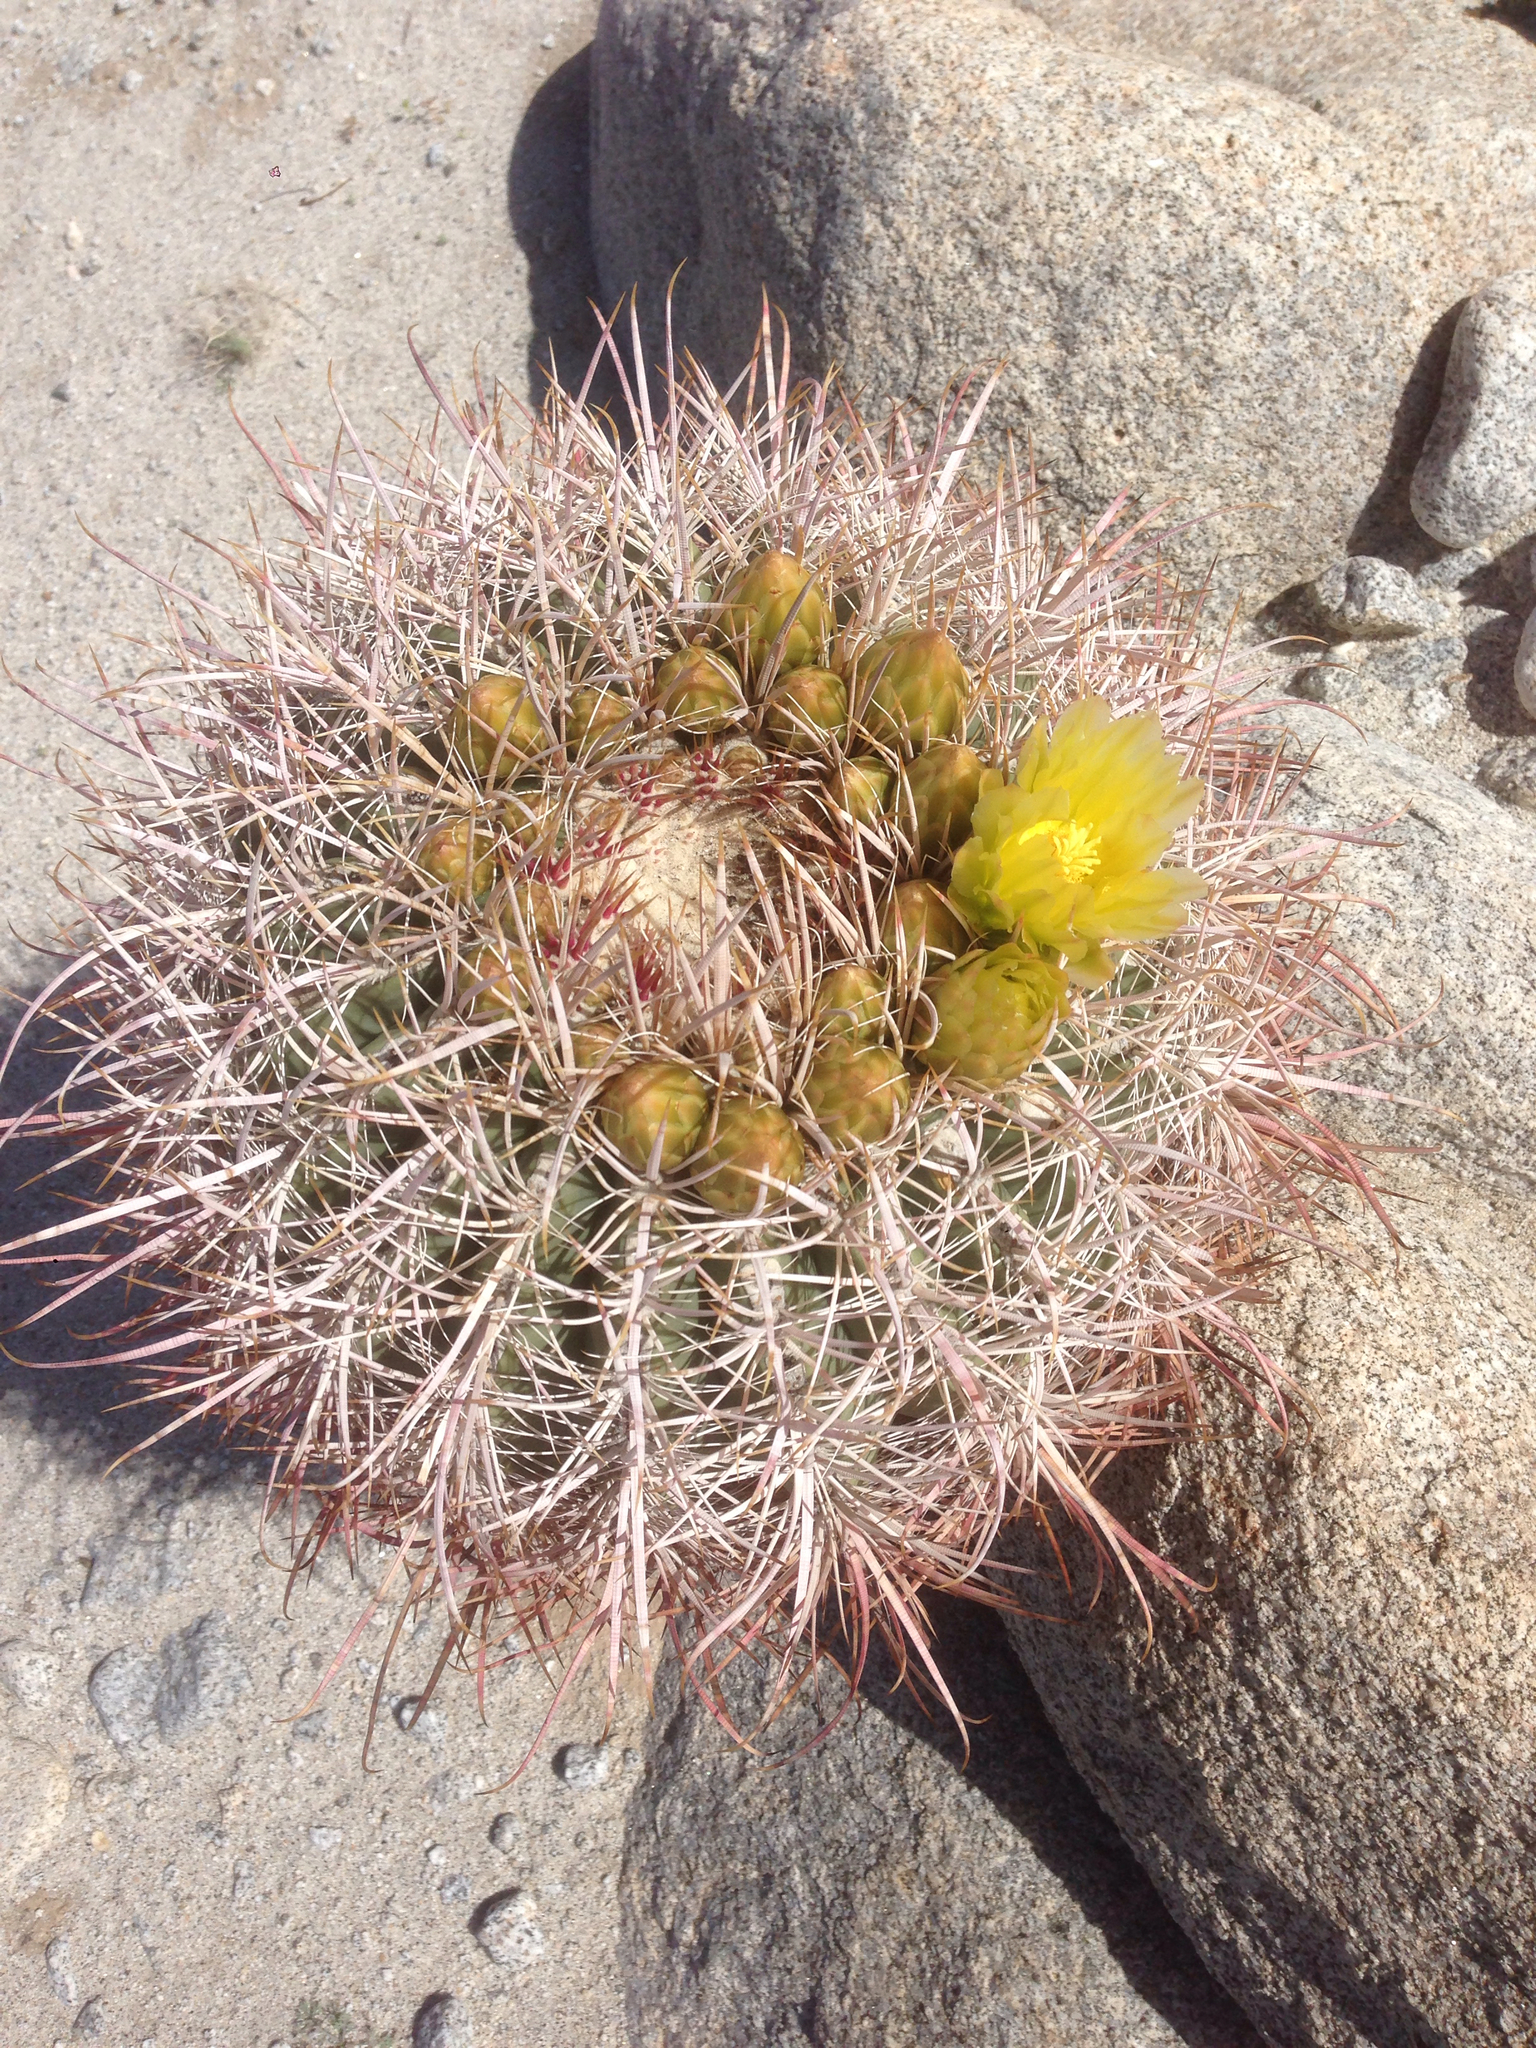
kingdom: Plantae
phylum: Tracheophyta
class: Magnoliopsida
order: Caryophyllales
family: Cactaceae
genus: Ferocactus
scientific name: Ferocactus cylindraceus
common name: California barrel cactus
